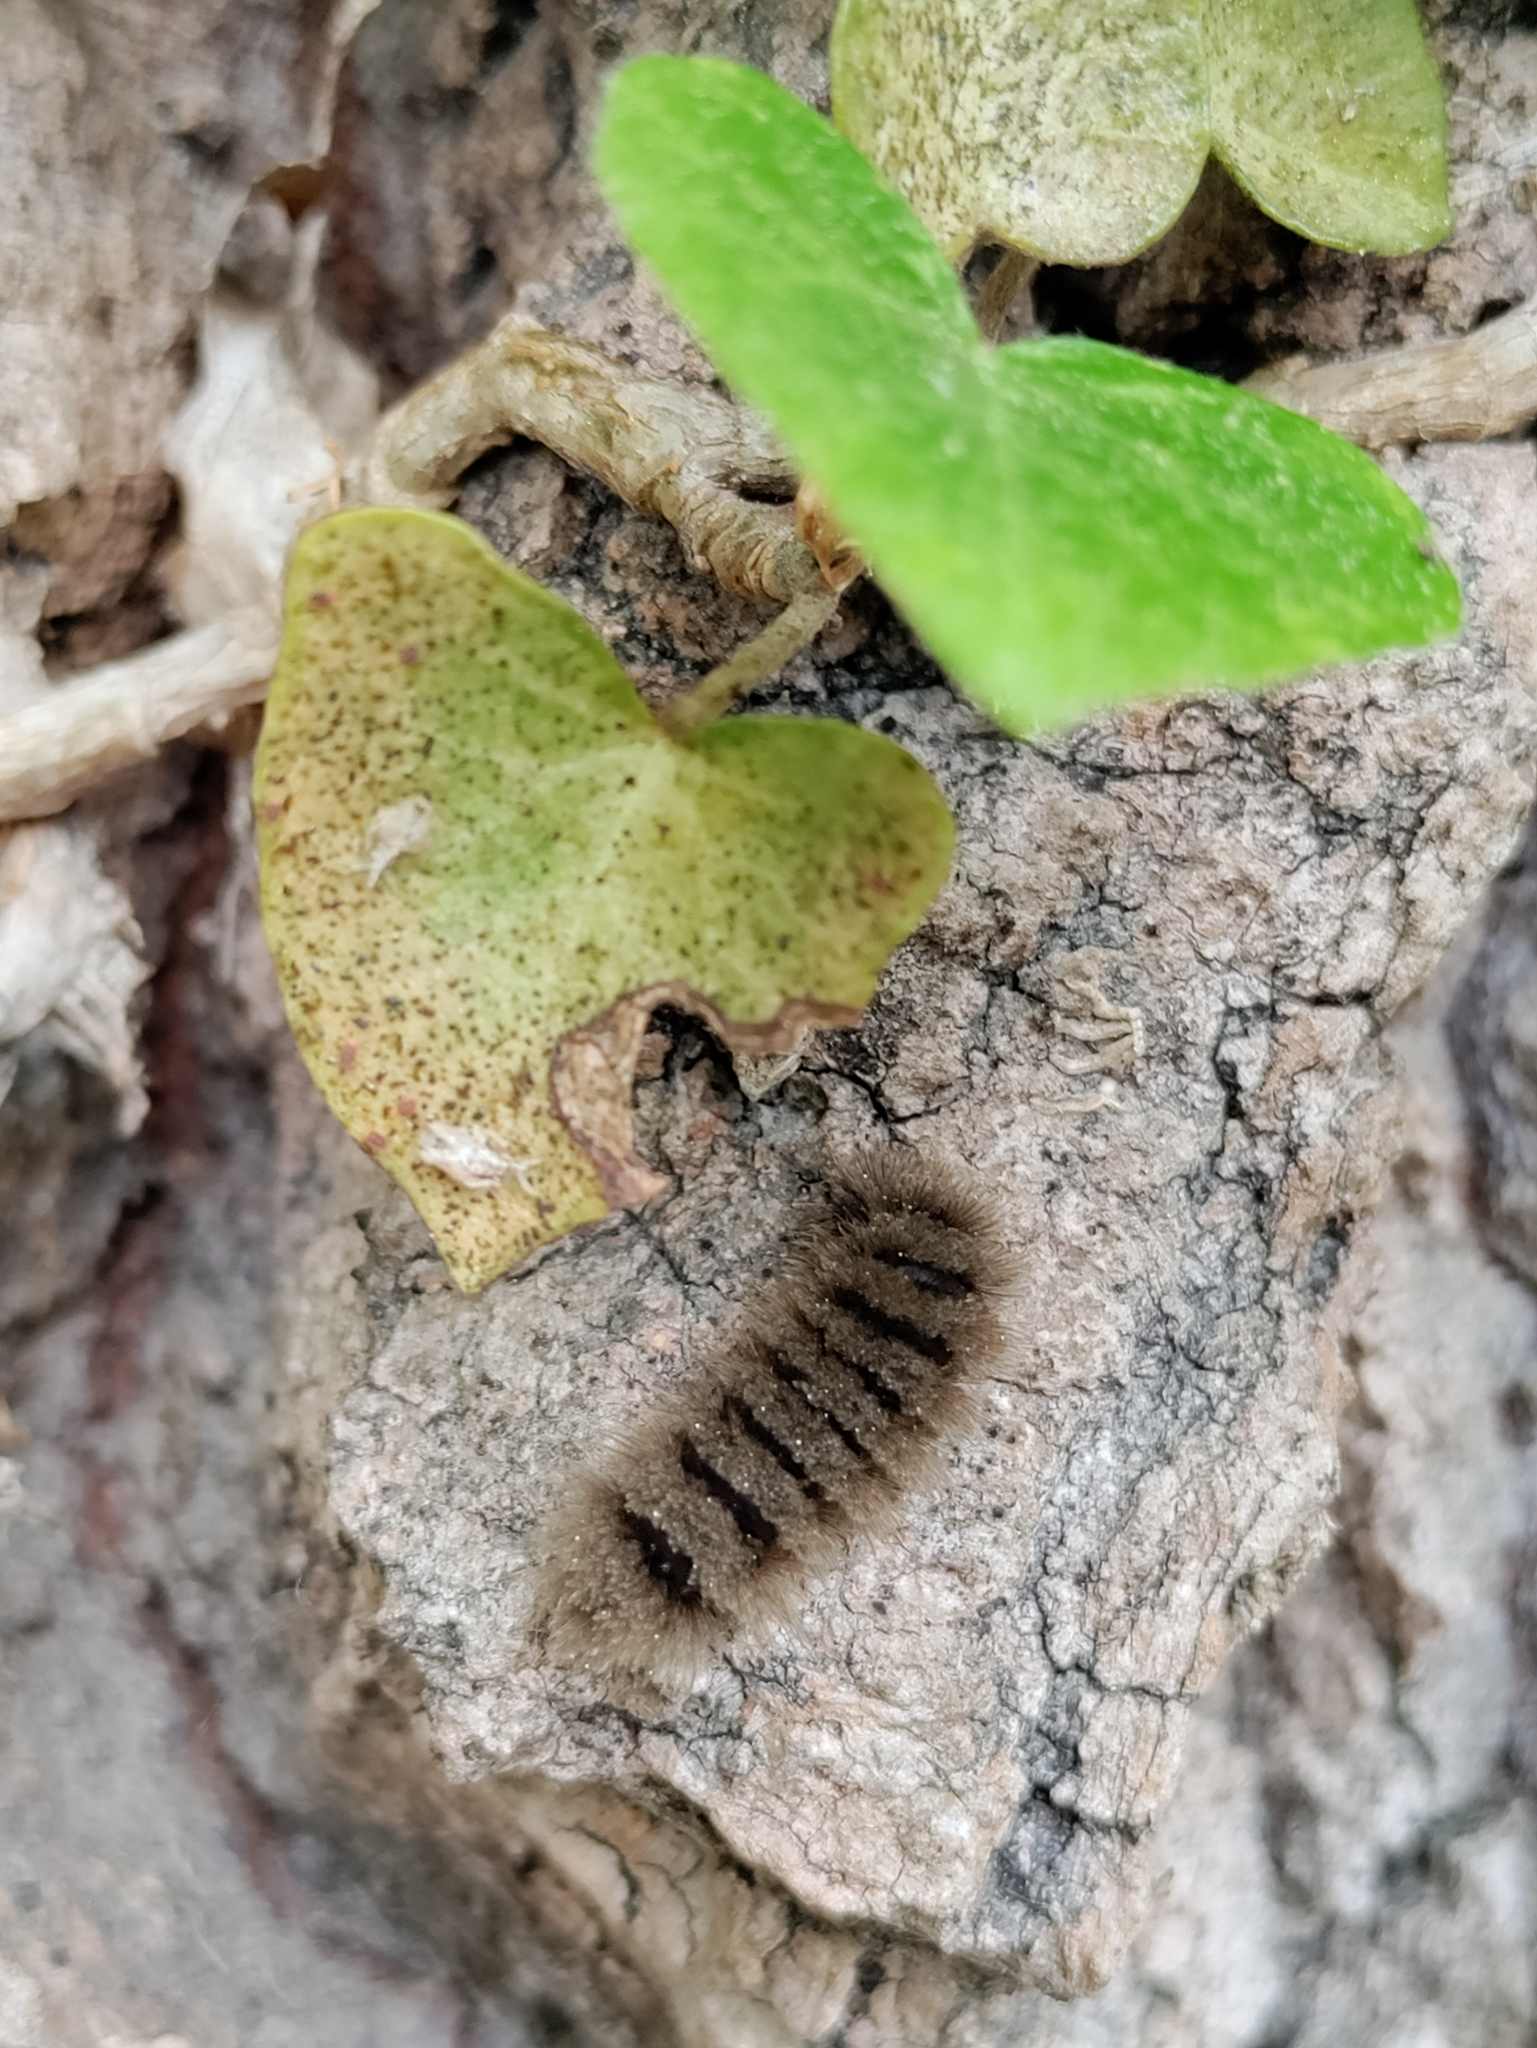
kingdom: Animalia
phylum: Arthropoda
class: Insecta
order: Lepidoptera
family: Erebidae
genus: Amata
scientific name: Amata phegea
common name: Nine-spotted
